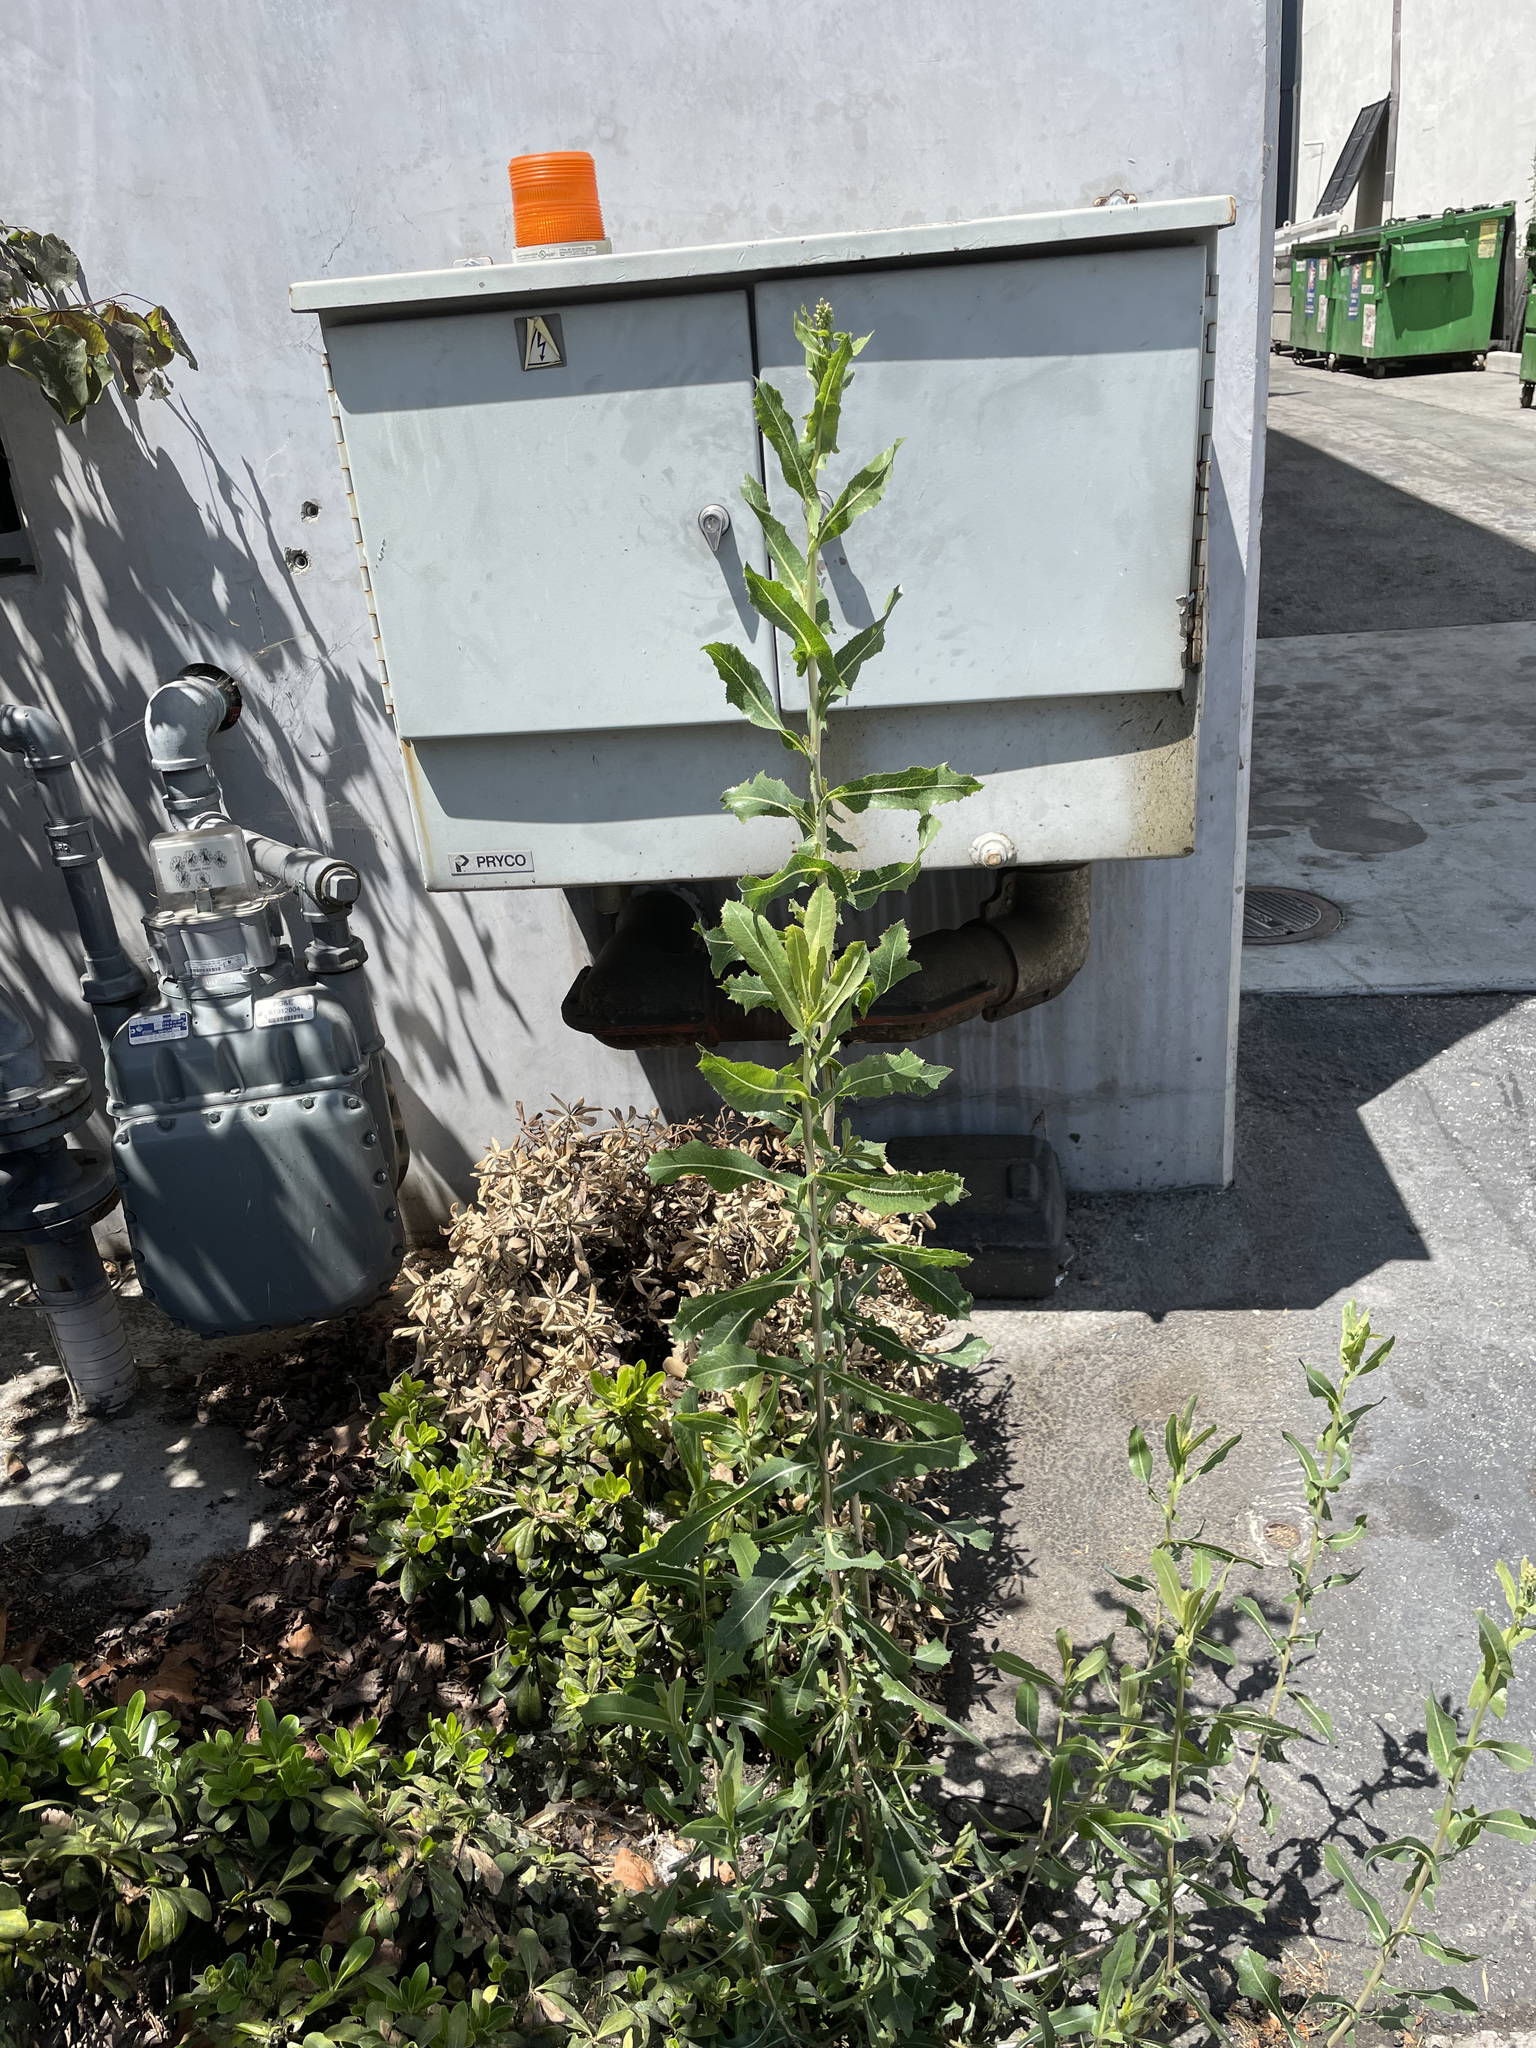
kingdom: Plantae
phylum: Tracheophyta
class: Magnoliopsida
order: Asterales
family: Asteraceae
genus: Lactuca
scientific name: Lactuca serriola
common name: Prickly lettuce
